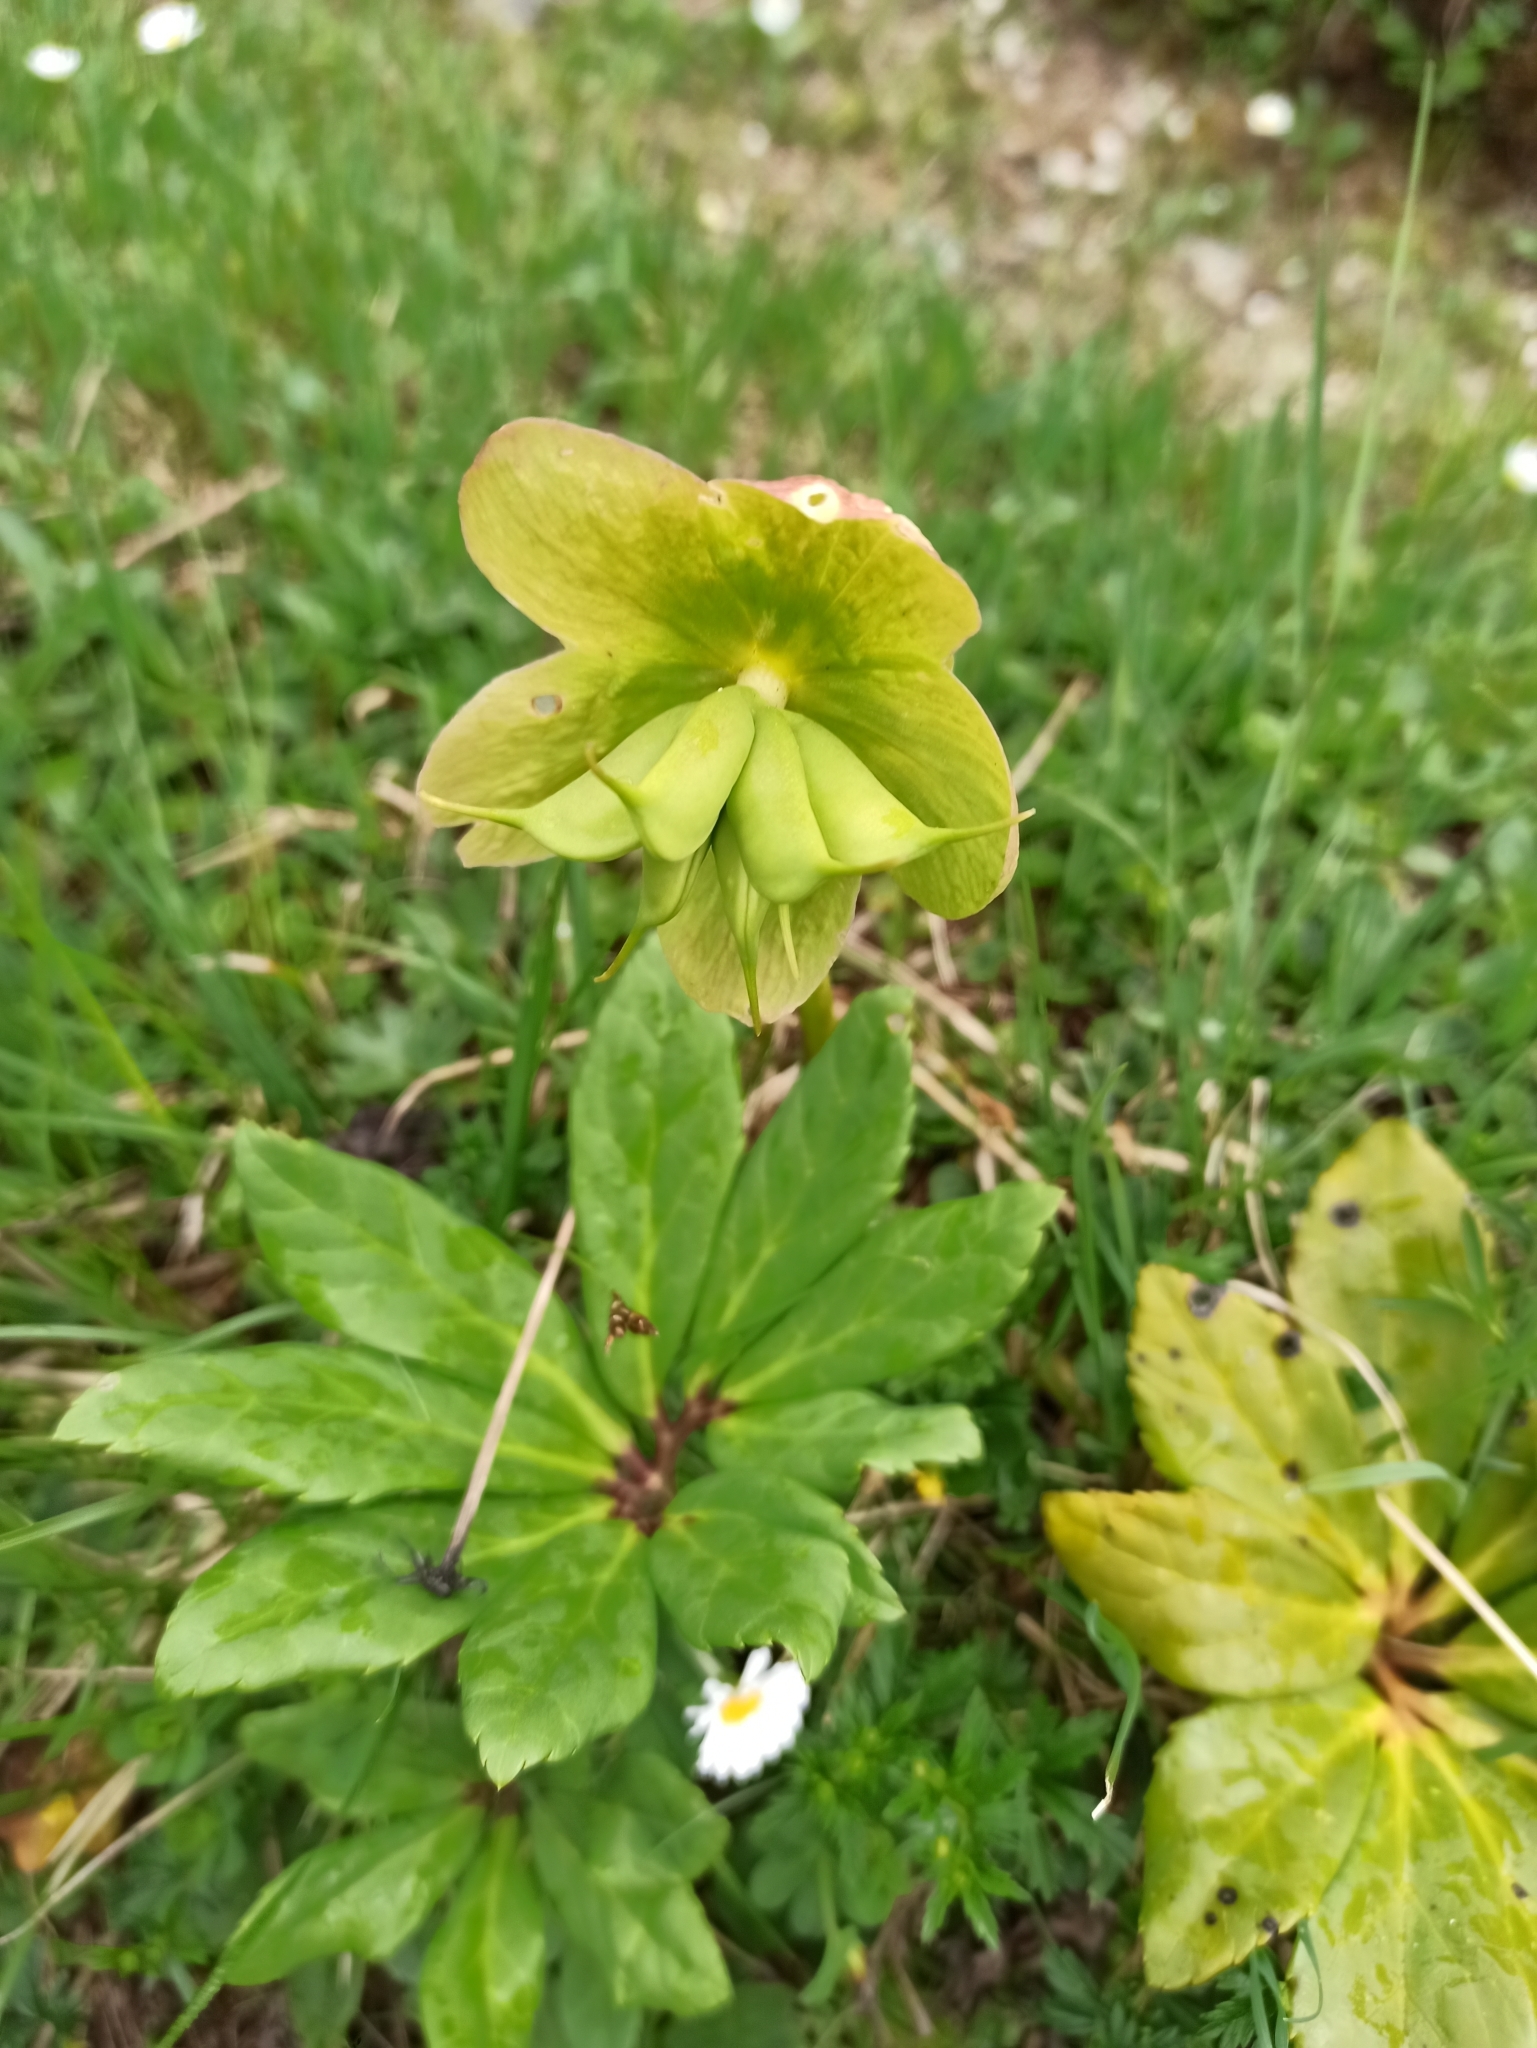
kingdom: Plantae
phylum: Tracheophyta
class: Magnoliopsida
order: Ranunculales
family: Ranunculaceae
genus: Helleborus
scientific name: Helleborus niger
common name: Black hellebore
